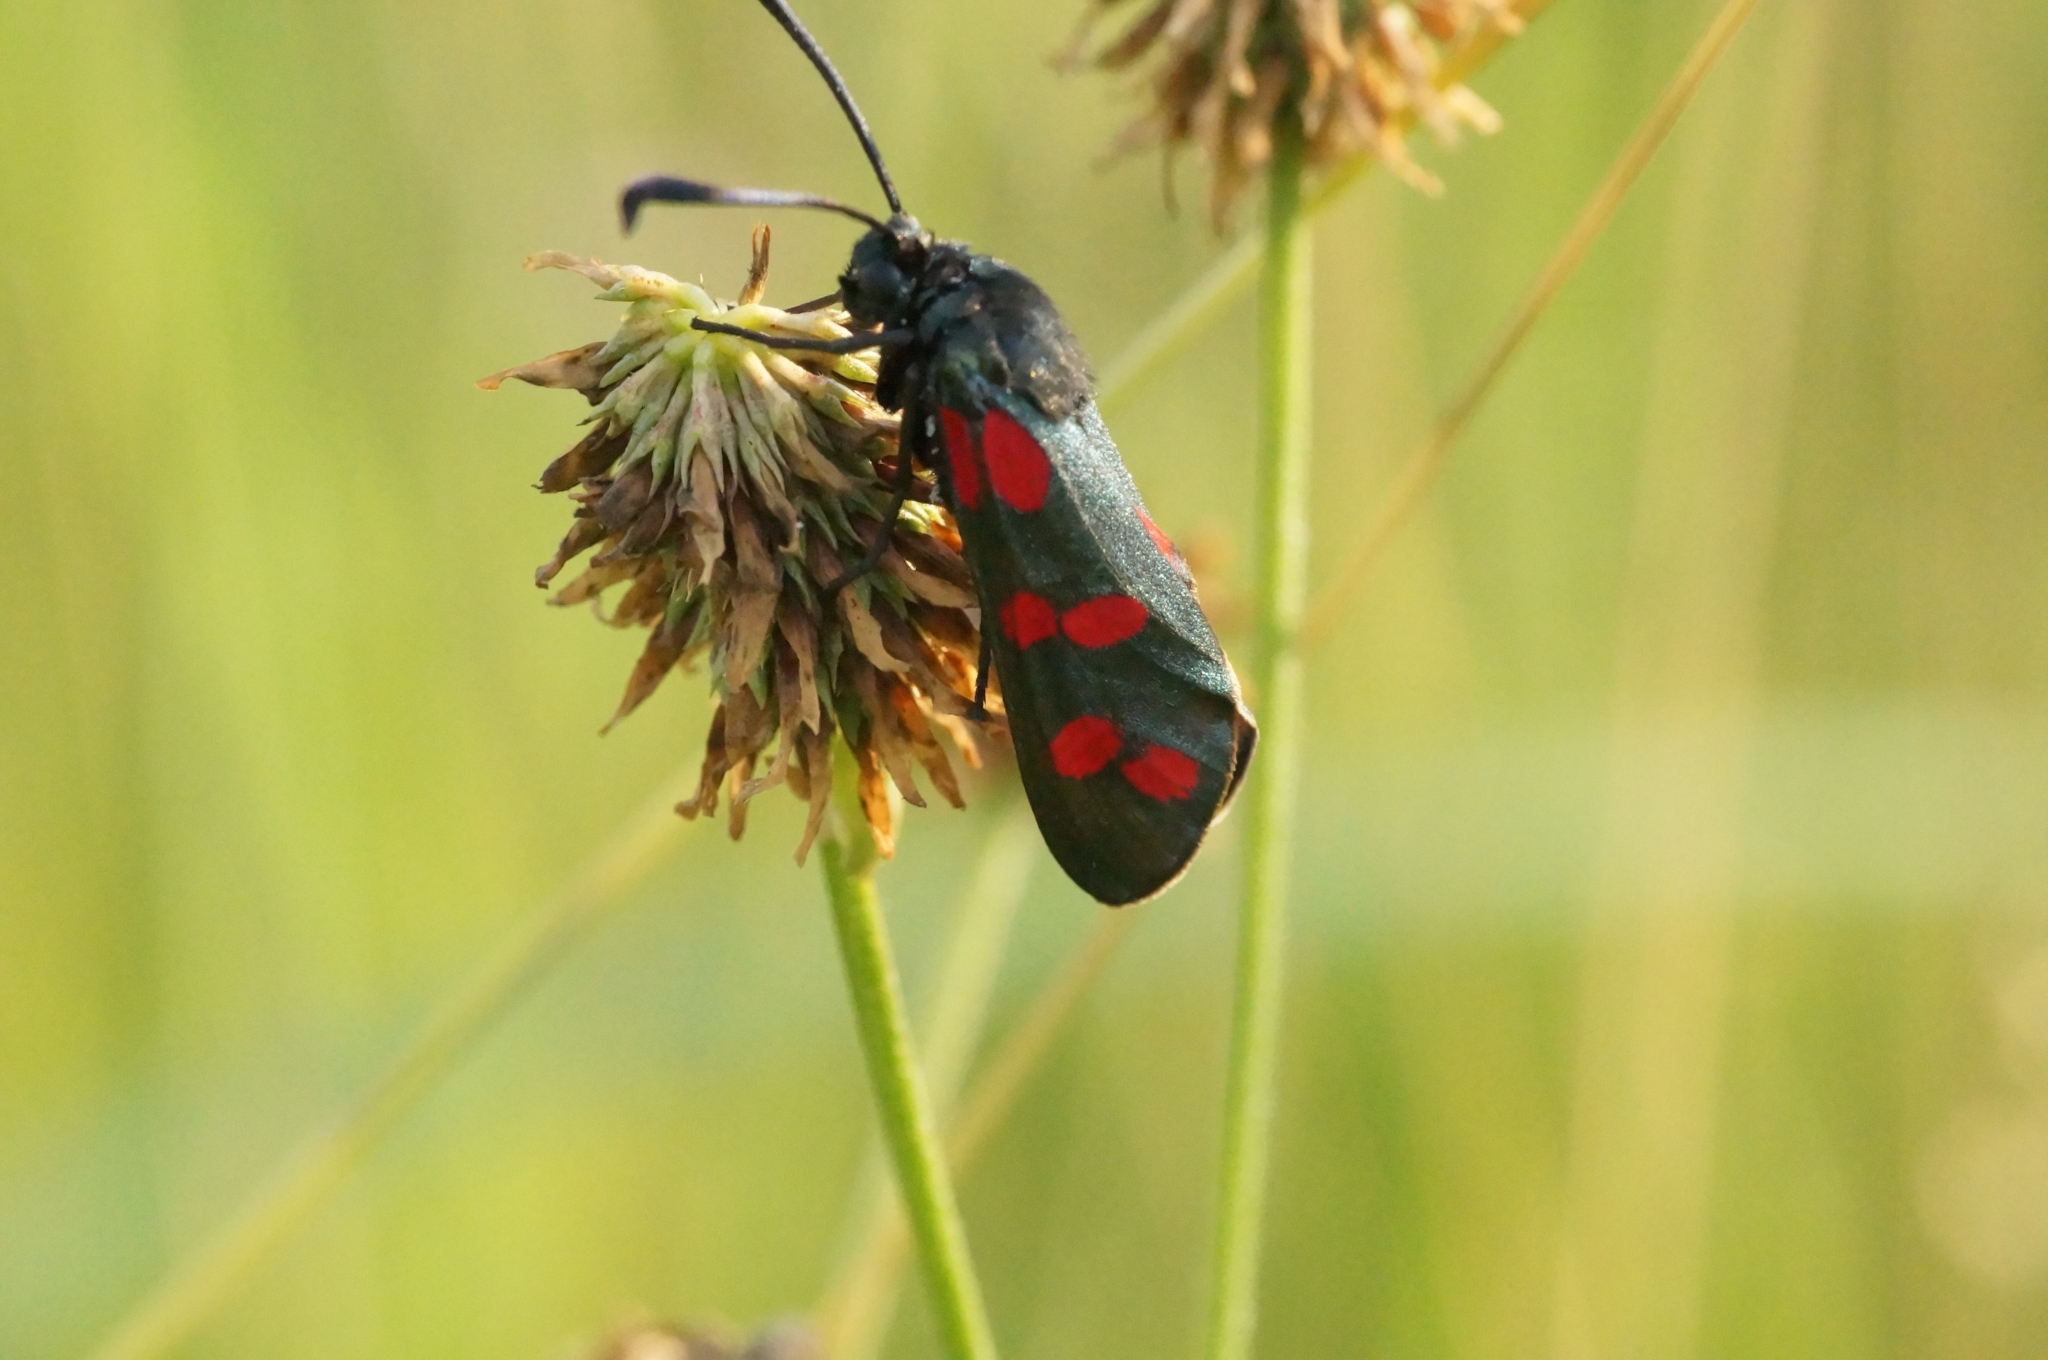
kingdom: Animalia
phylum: Arthropoda
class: Insecta
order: Lepidoptera
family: Zygaenidae
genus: Zygaena
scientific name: Zygaena filipendulae
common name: Six-spot burnet
